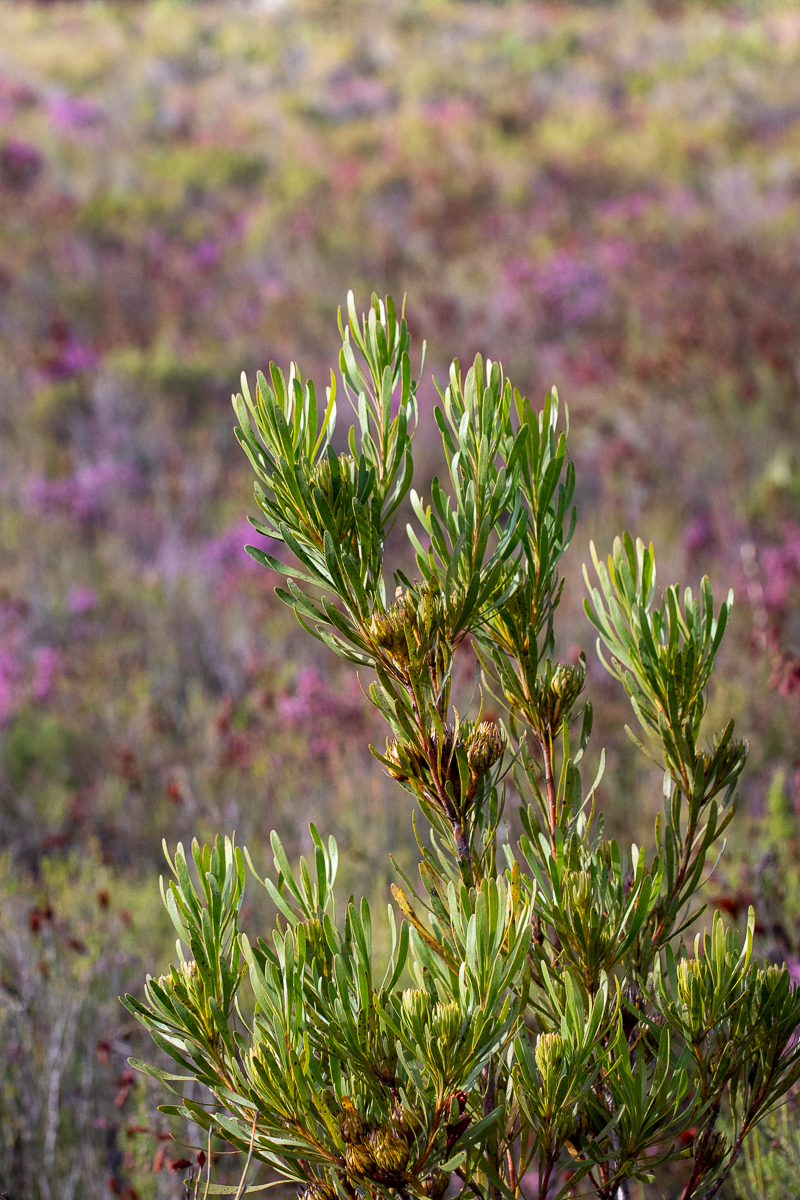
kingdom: Plantae
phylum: Tracheophyta
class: Magnoliopsida
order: Proteales
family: Proteaceae
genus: Aulax
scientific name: Aulax umbellata
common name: Broad-leaf featherbush
